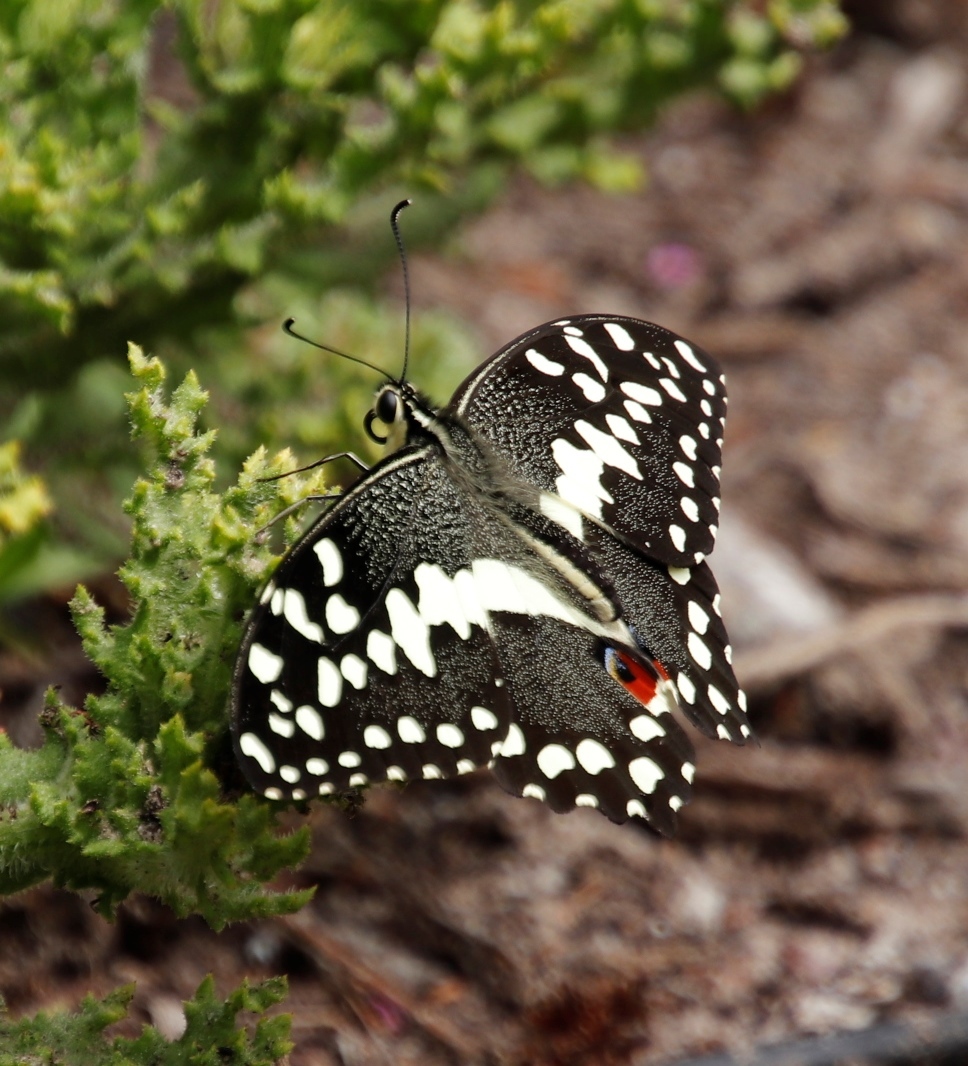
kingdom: Animalia
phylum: Arthropoda
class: Insecta
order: Lepidoptera
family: Papilionidae
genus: Papilio
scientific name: Papilio demodocus
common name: Christmas butterfly
